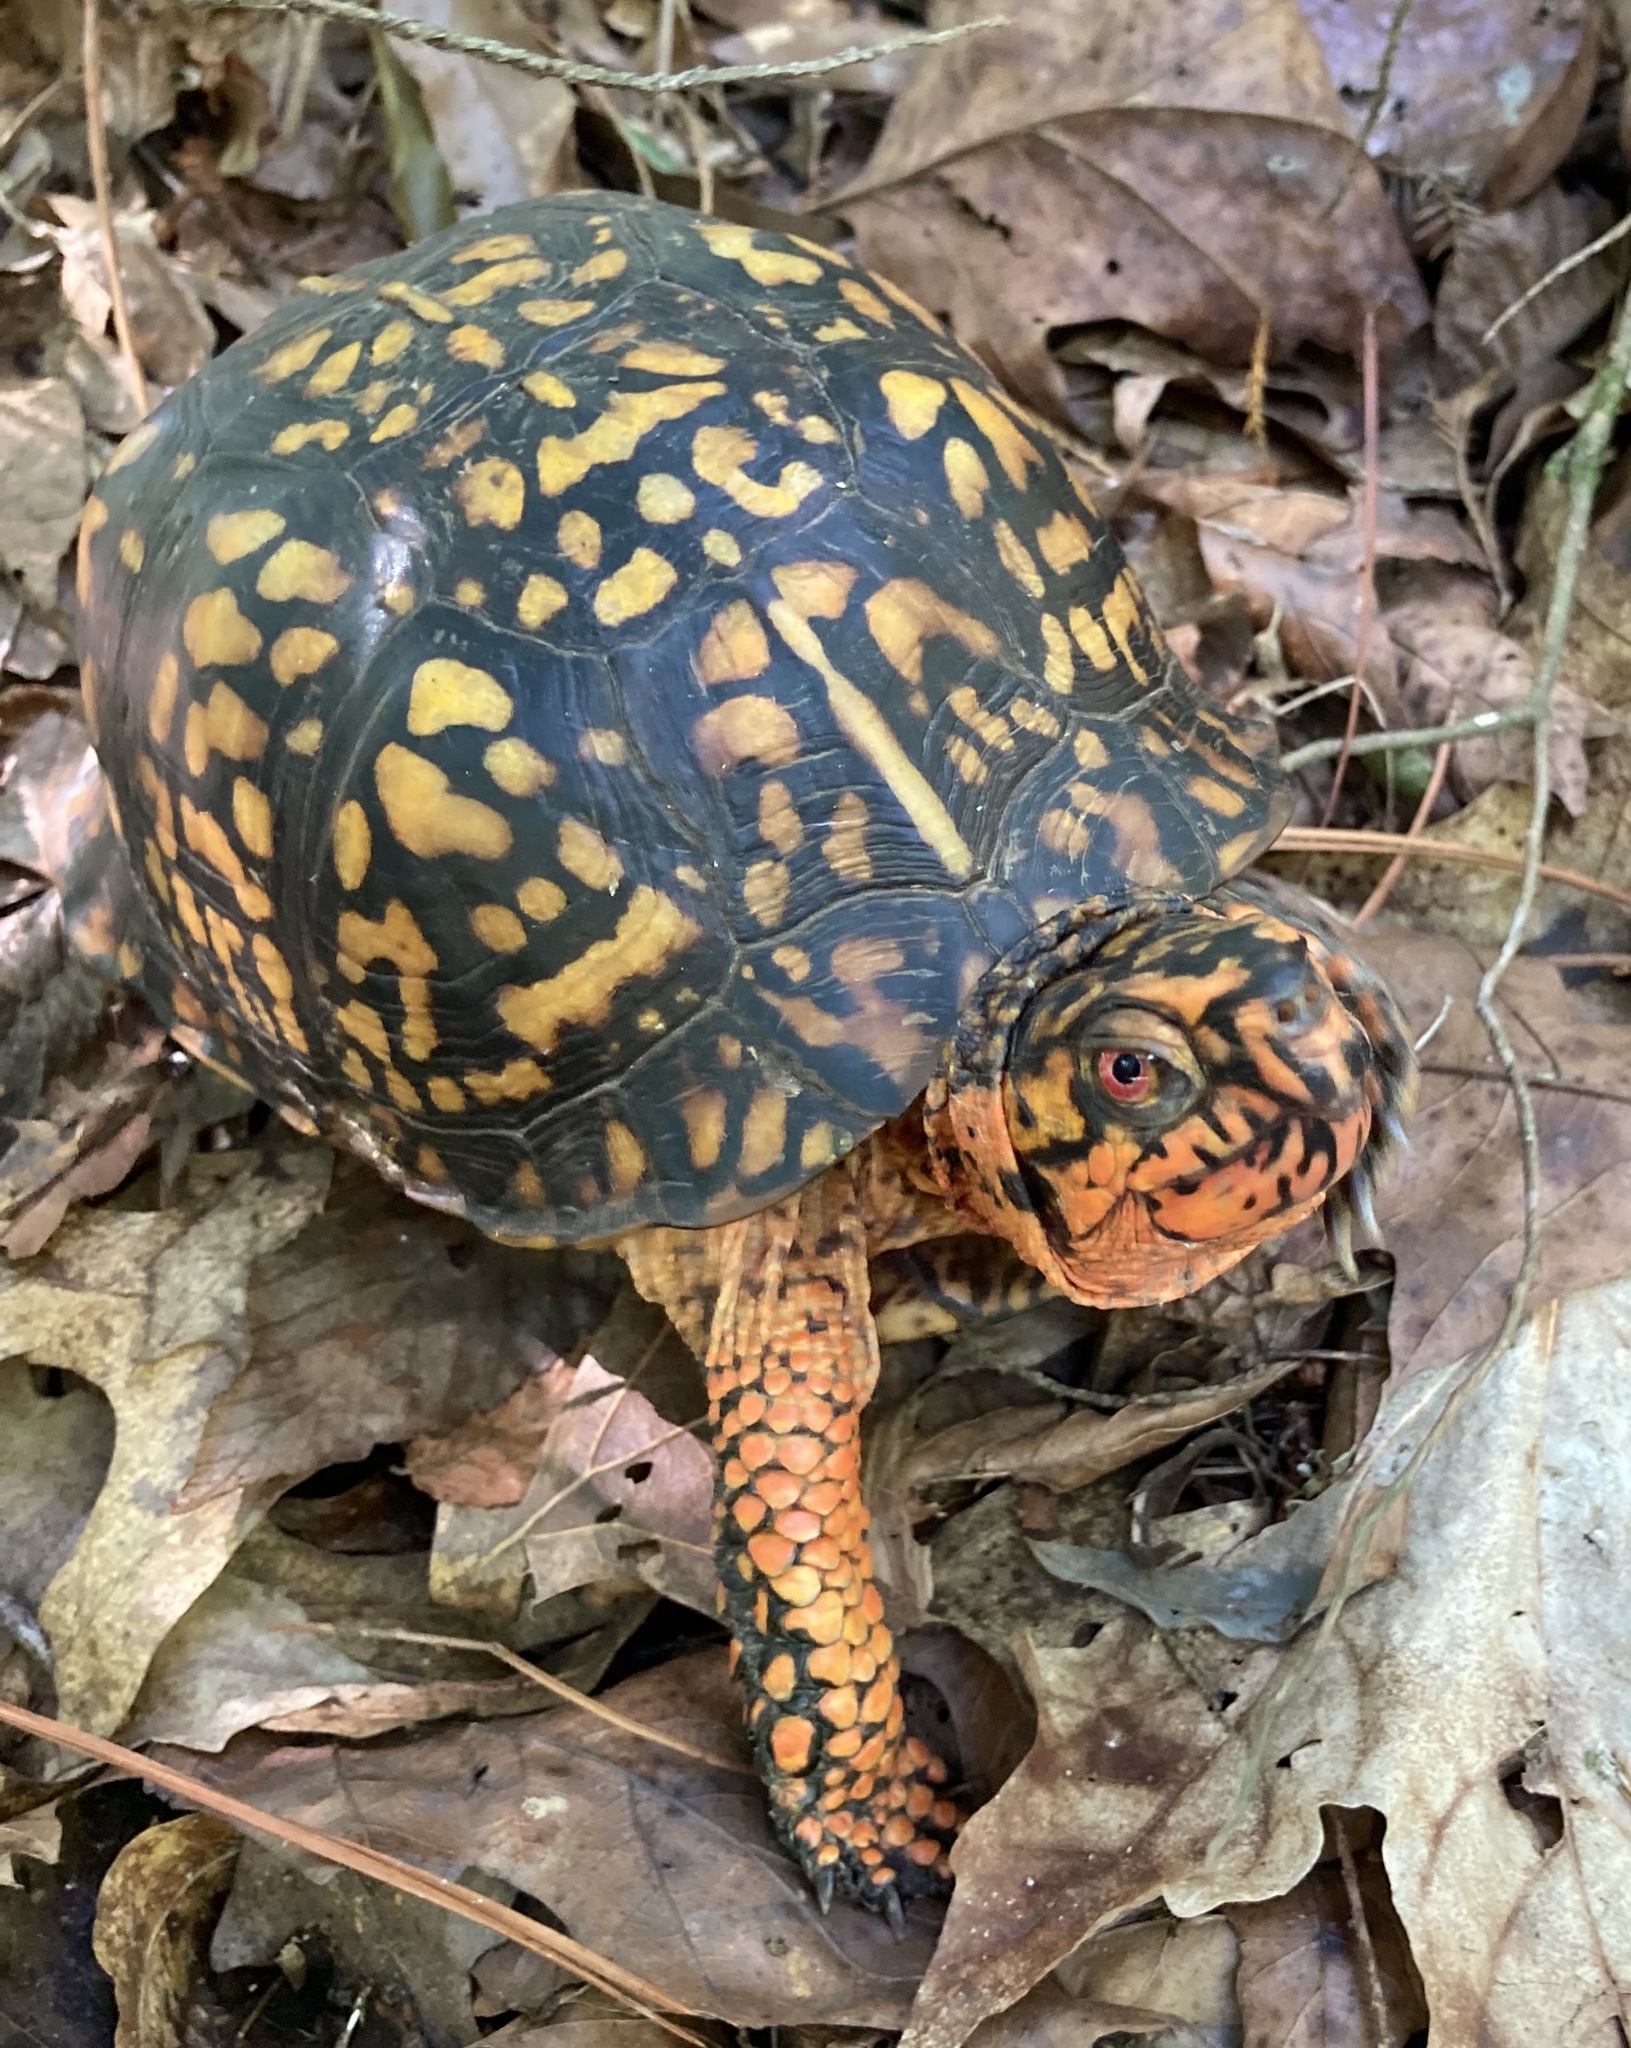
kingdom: Animalia
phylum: Chordata
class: Testudines
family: Emydidae
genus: Terrapene
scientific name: Terrapene carolina
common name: Common box turtle
